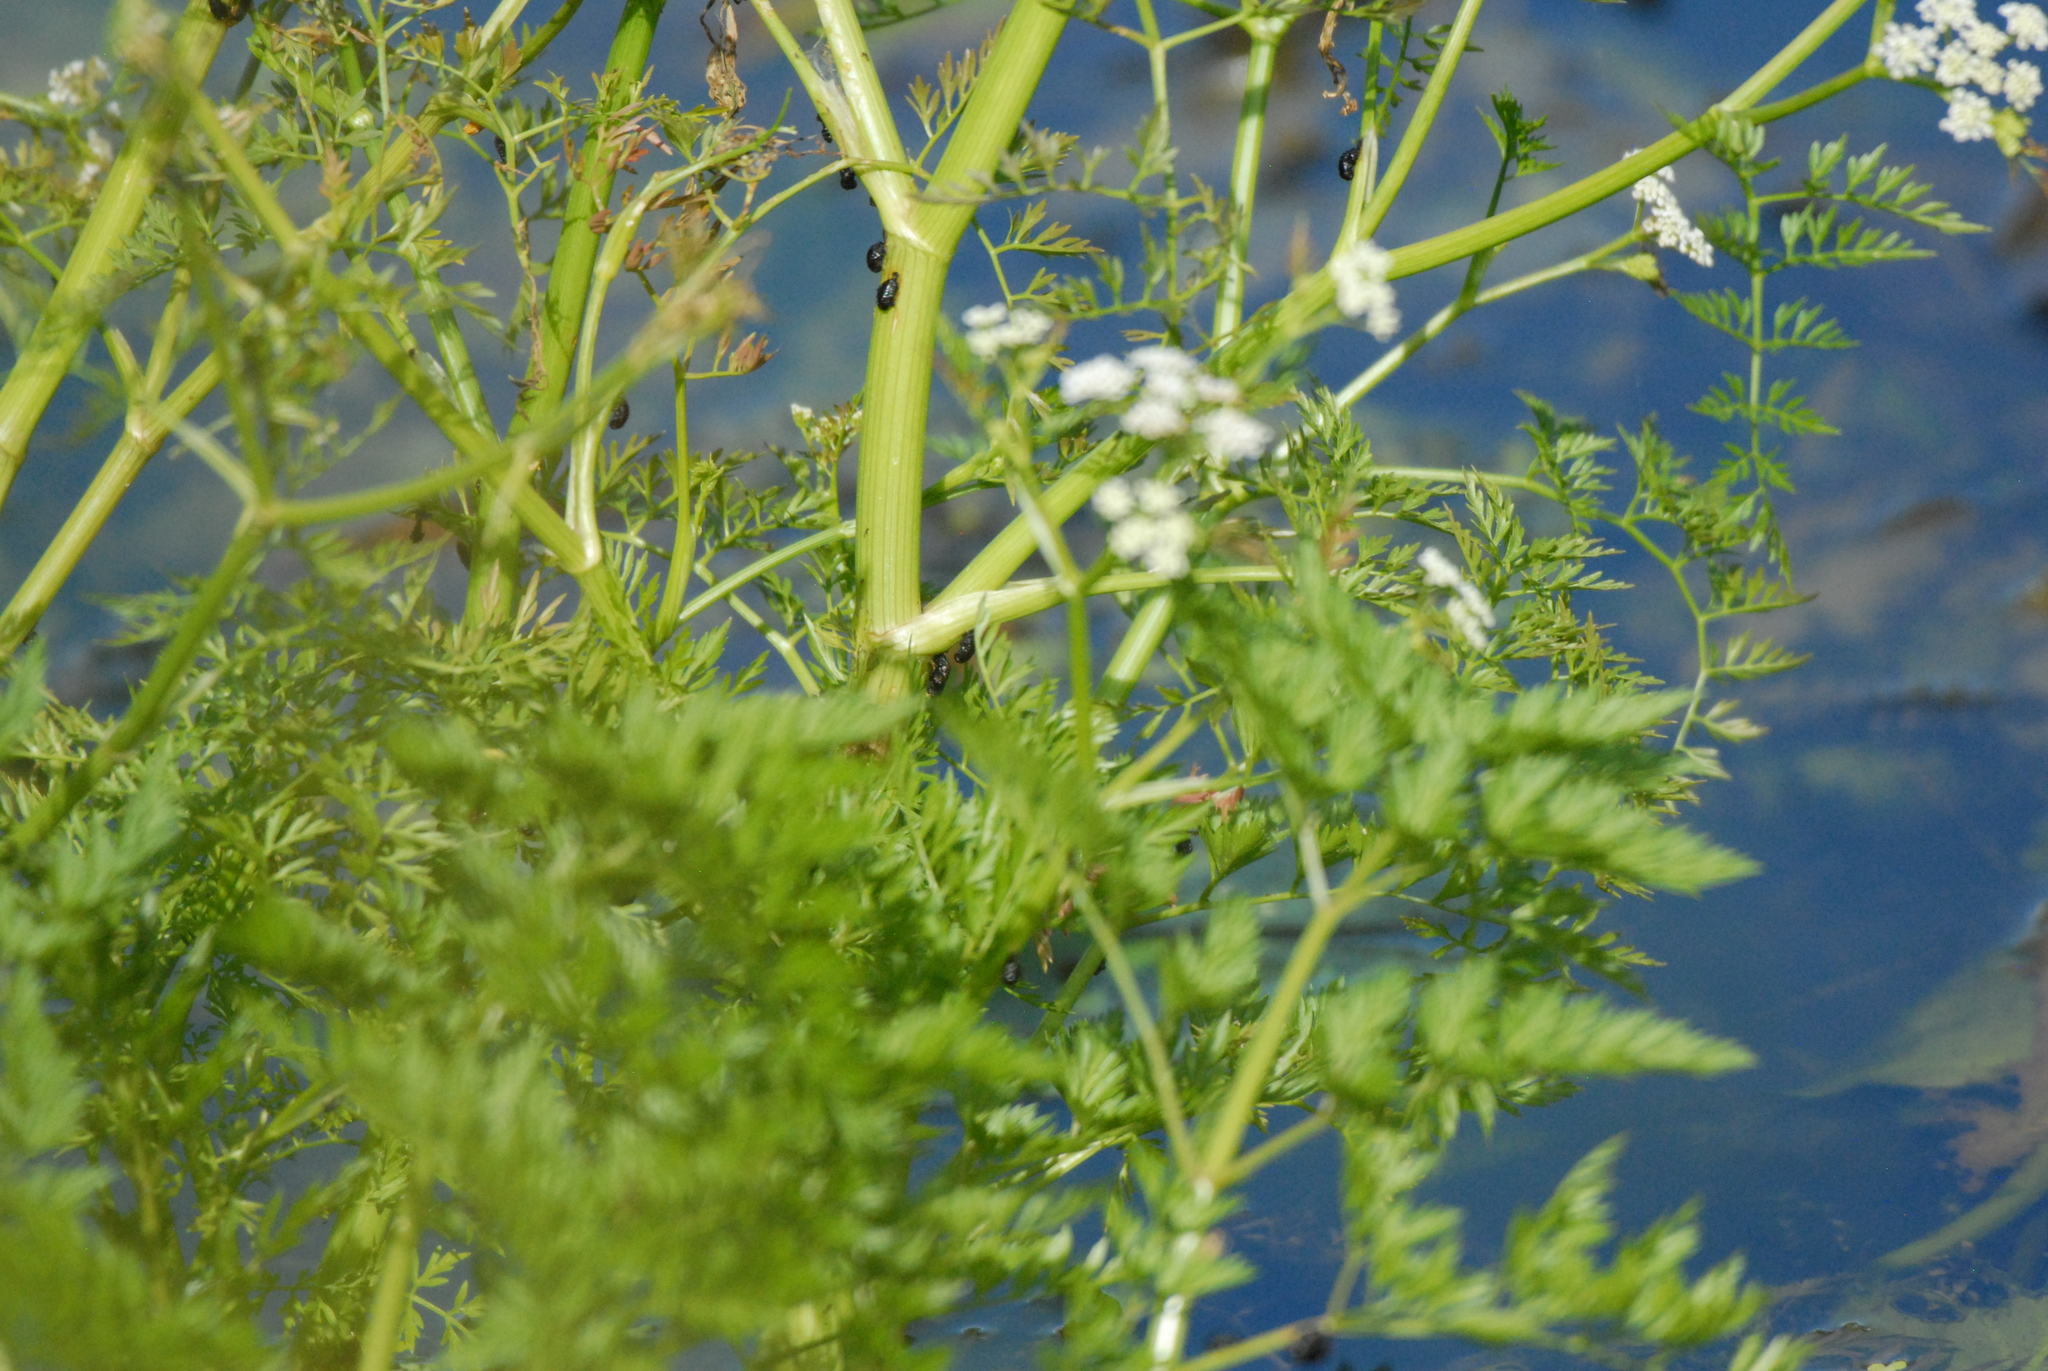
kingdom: Plantae
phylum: Tracheophyta
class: Magnoliopsida
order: Apiales
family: Apiaceae
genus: Oenanthe
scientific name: Oenanthe aquatica
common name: Fine-leaved water-dropwort
